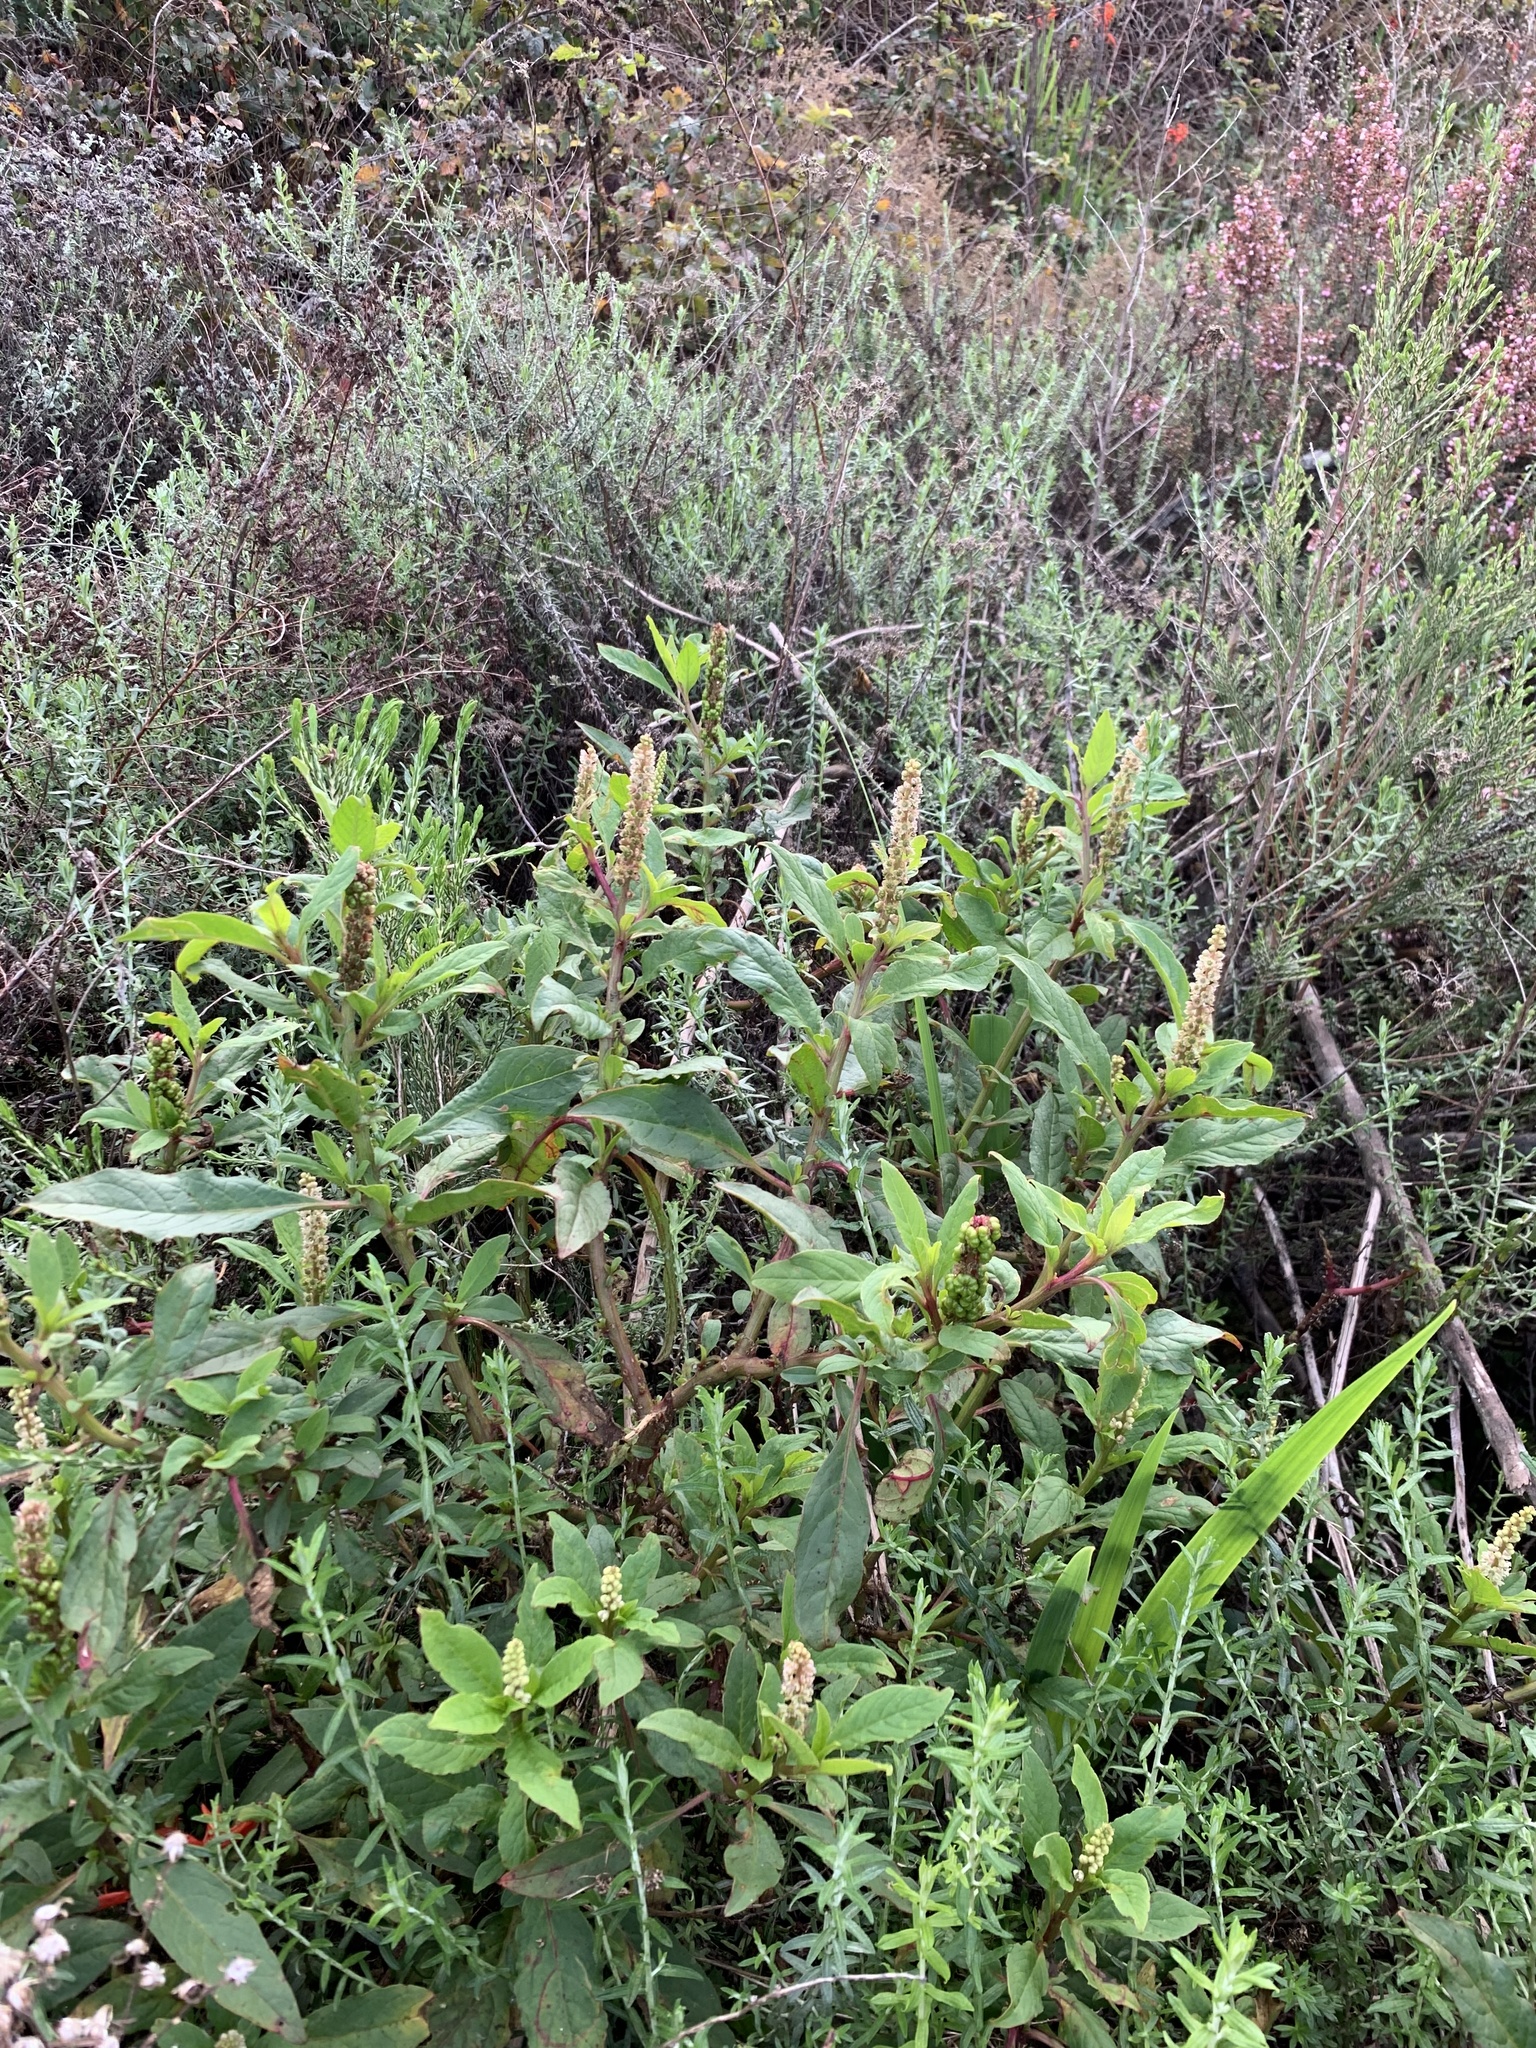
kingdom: Plantae
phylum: Tracheophyta
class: Magnoliopsida
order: Caryophyllales
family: Phytolaccaceae
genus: Phytolacca
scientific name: Phytolacca icosandra
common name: Button pokeweed
